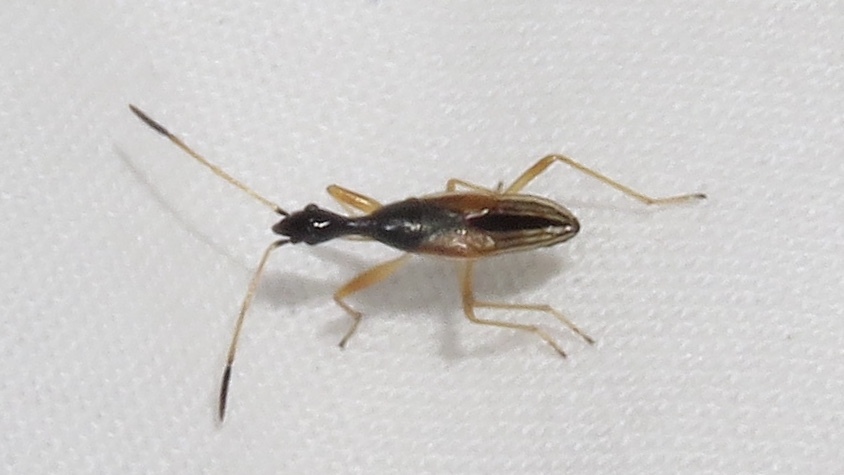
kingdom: Animalia
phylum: Arthropoda
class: Insecta
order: Hemiptera
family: Rhyparochromidae
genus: Myodocha
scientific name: Myodocha serripes
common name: Long-necked seed bug
